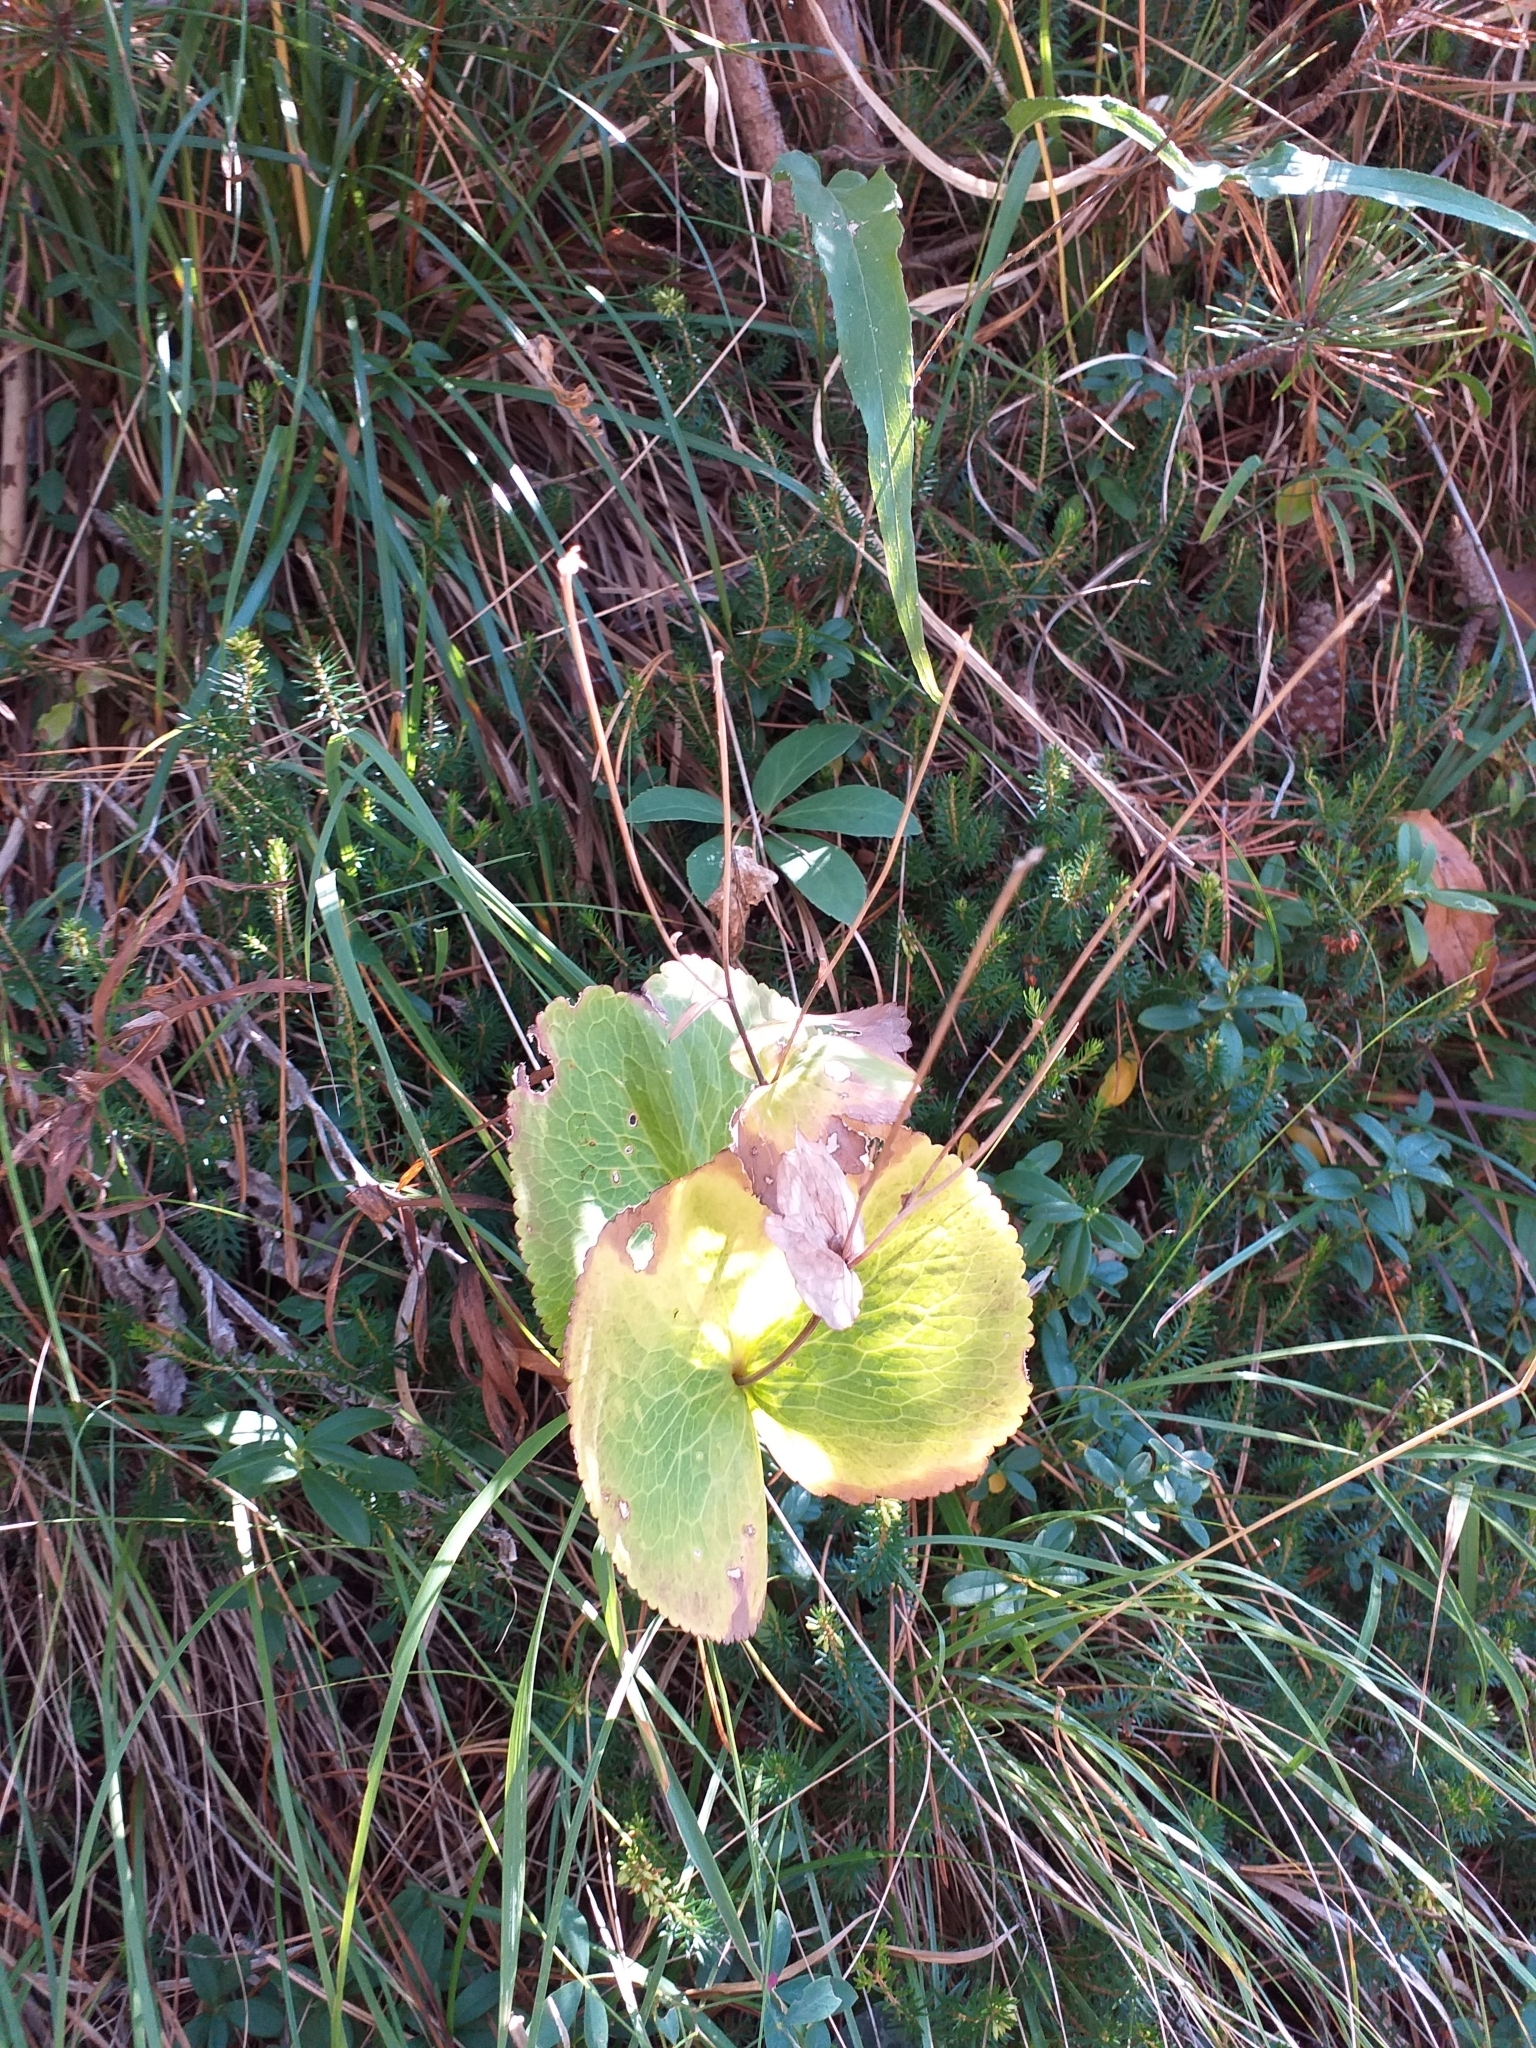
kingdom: Plantae
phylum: Tracheophyta
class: Magnoliopsida
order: Ranunculales
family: Ranunculaceae
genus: Ranunculus
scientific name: Ranunculus thora
